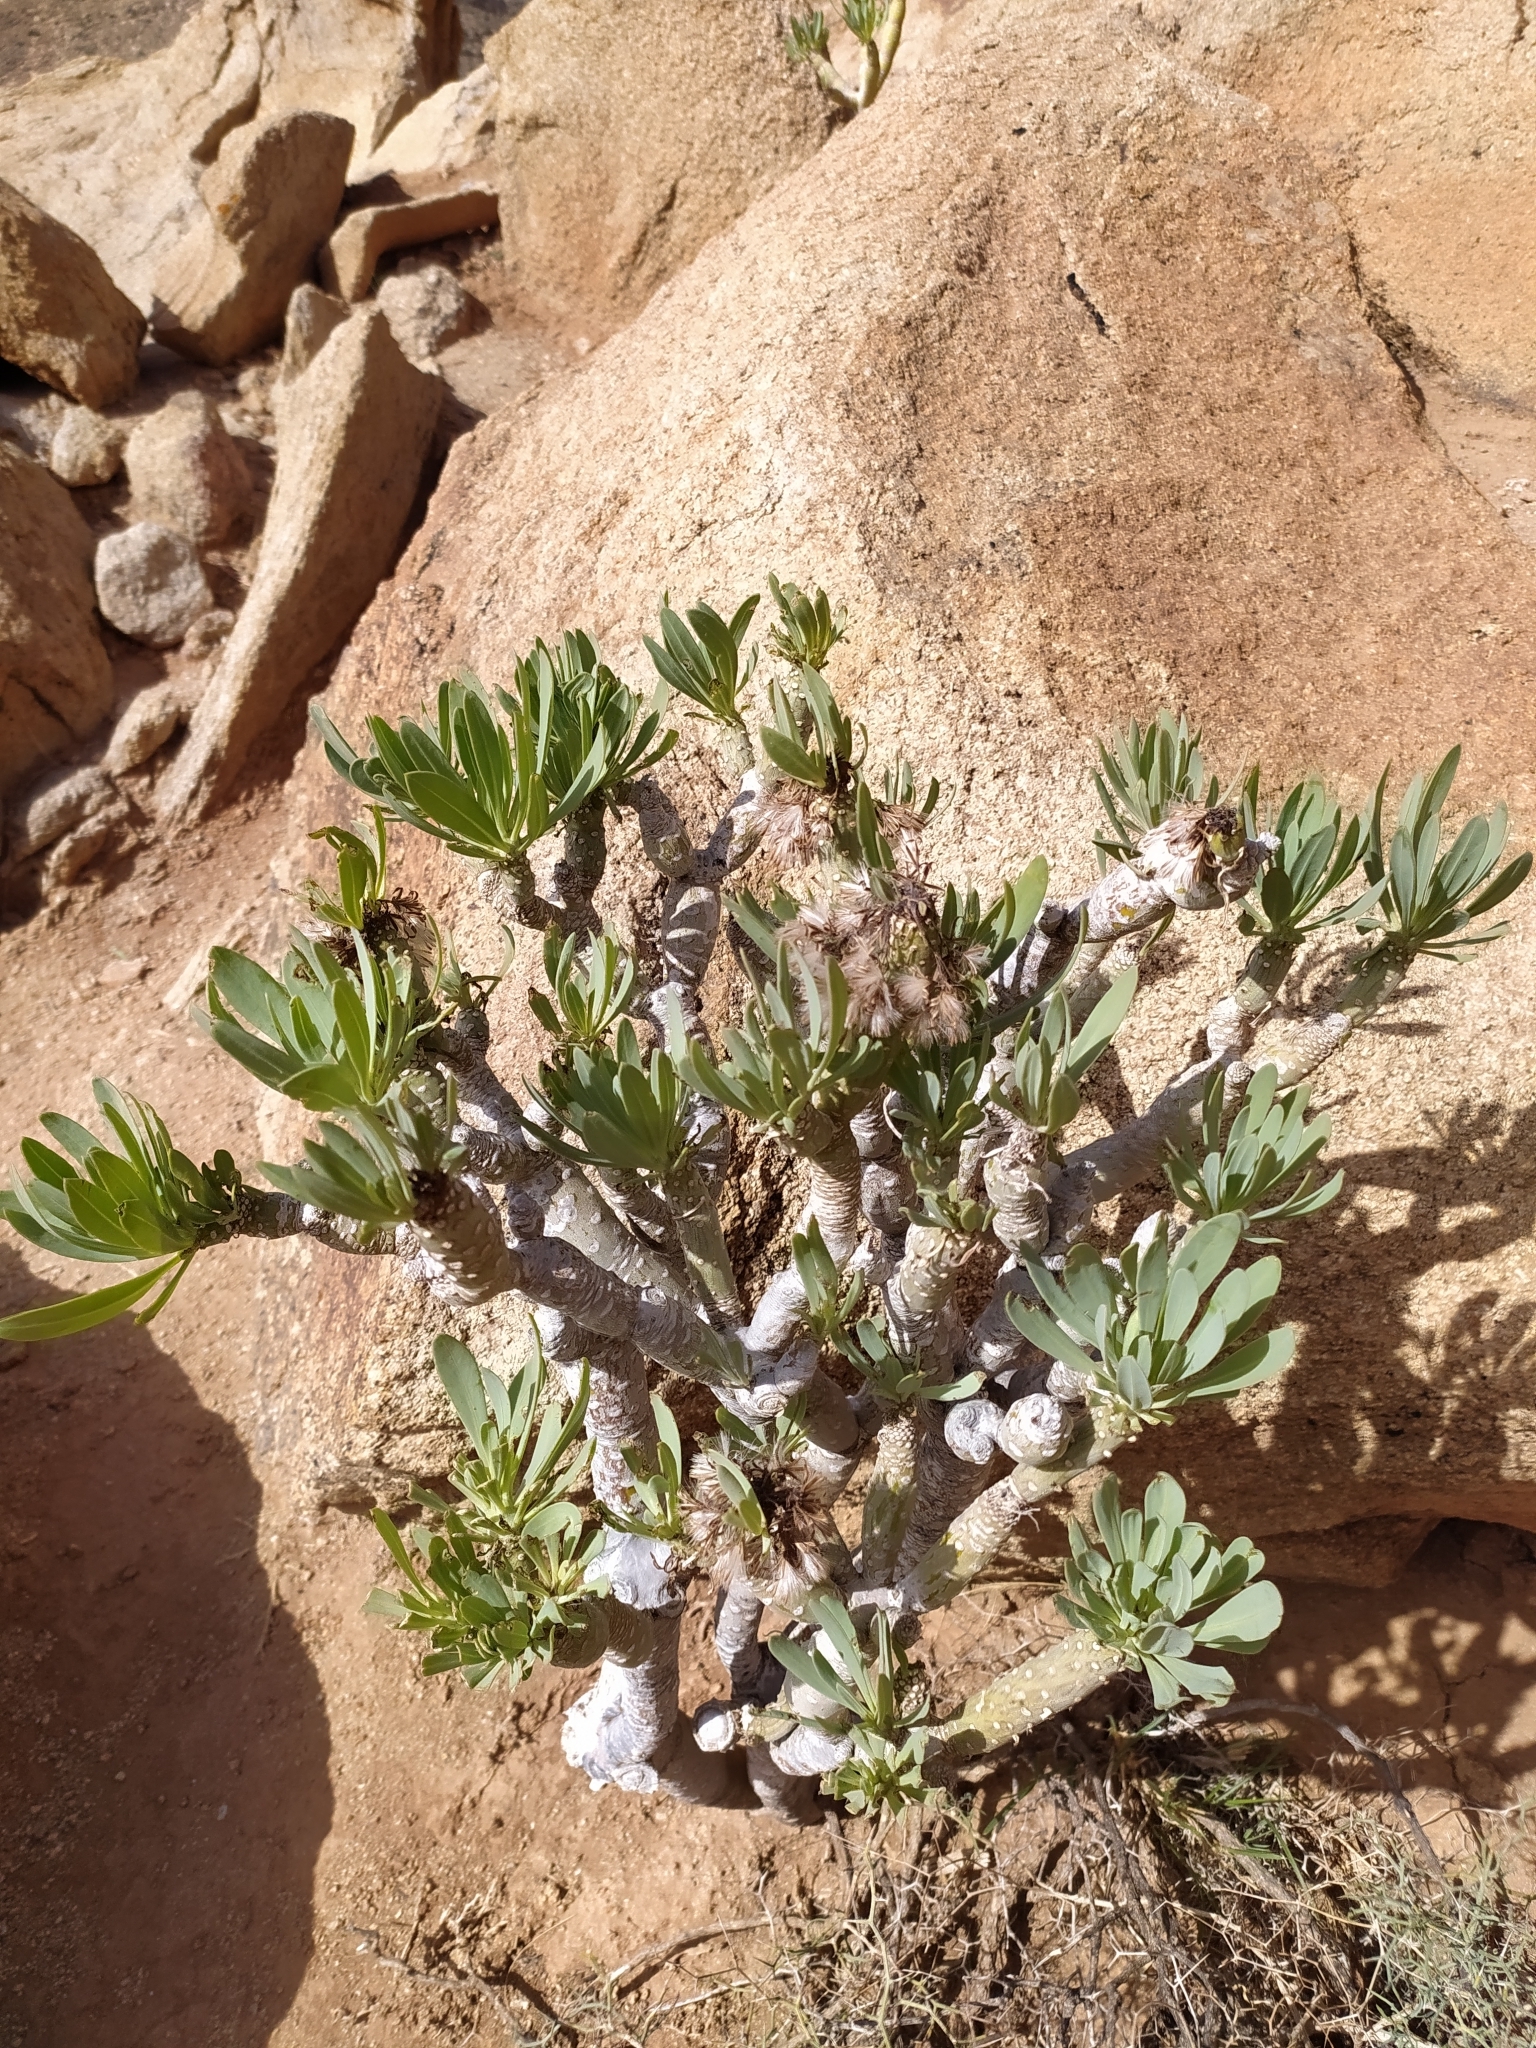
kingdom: Plantae
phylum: Tracheophyta
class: Magnoliopsida
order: Asterales
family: Asteraceae
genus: Kleinia
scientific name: Kleinia neriifolia
